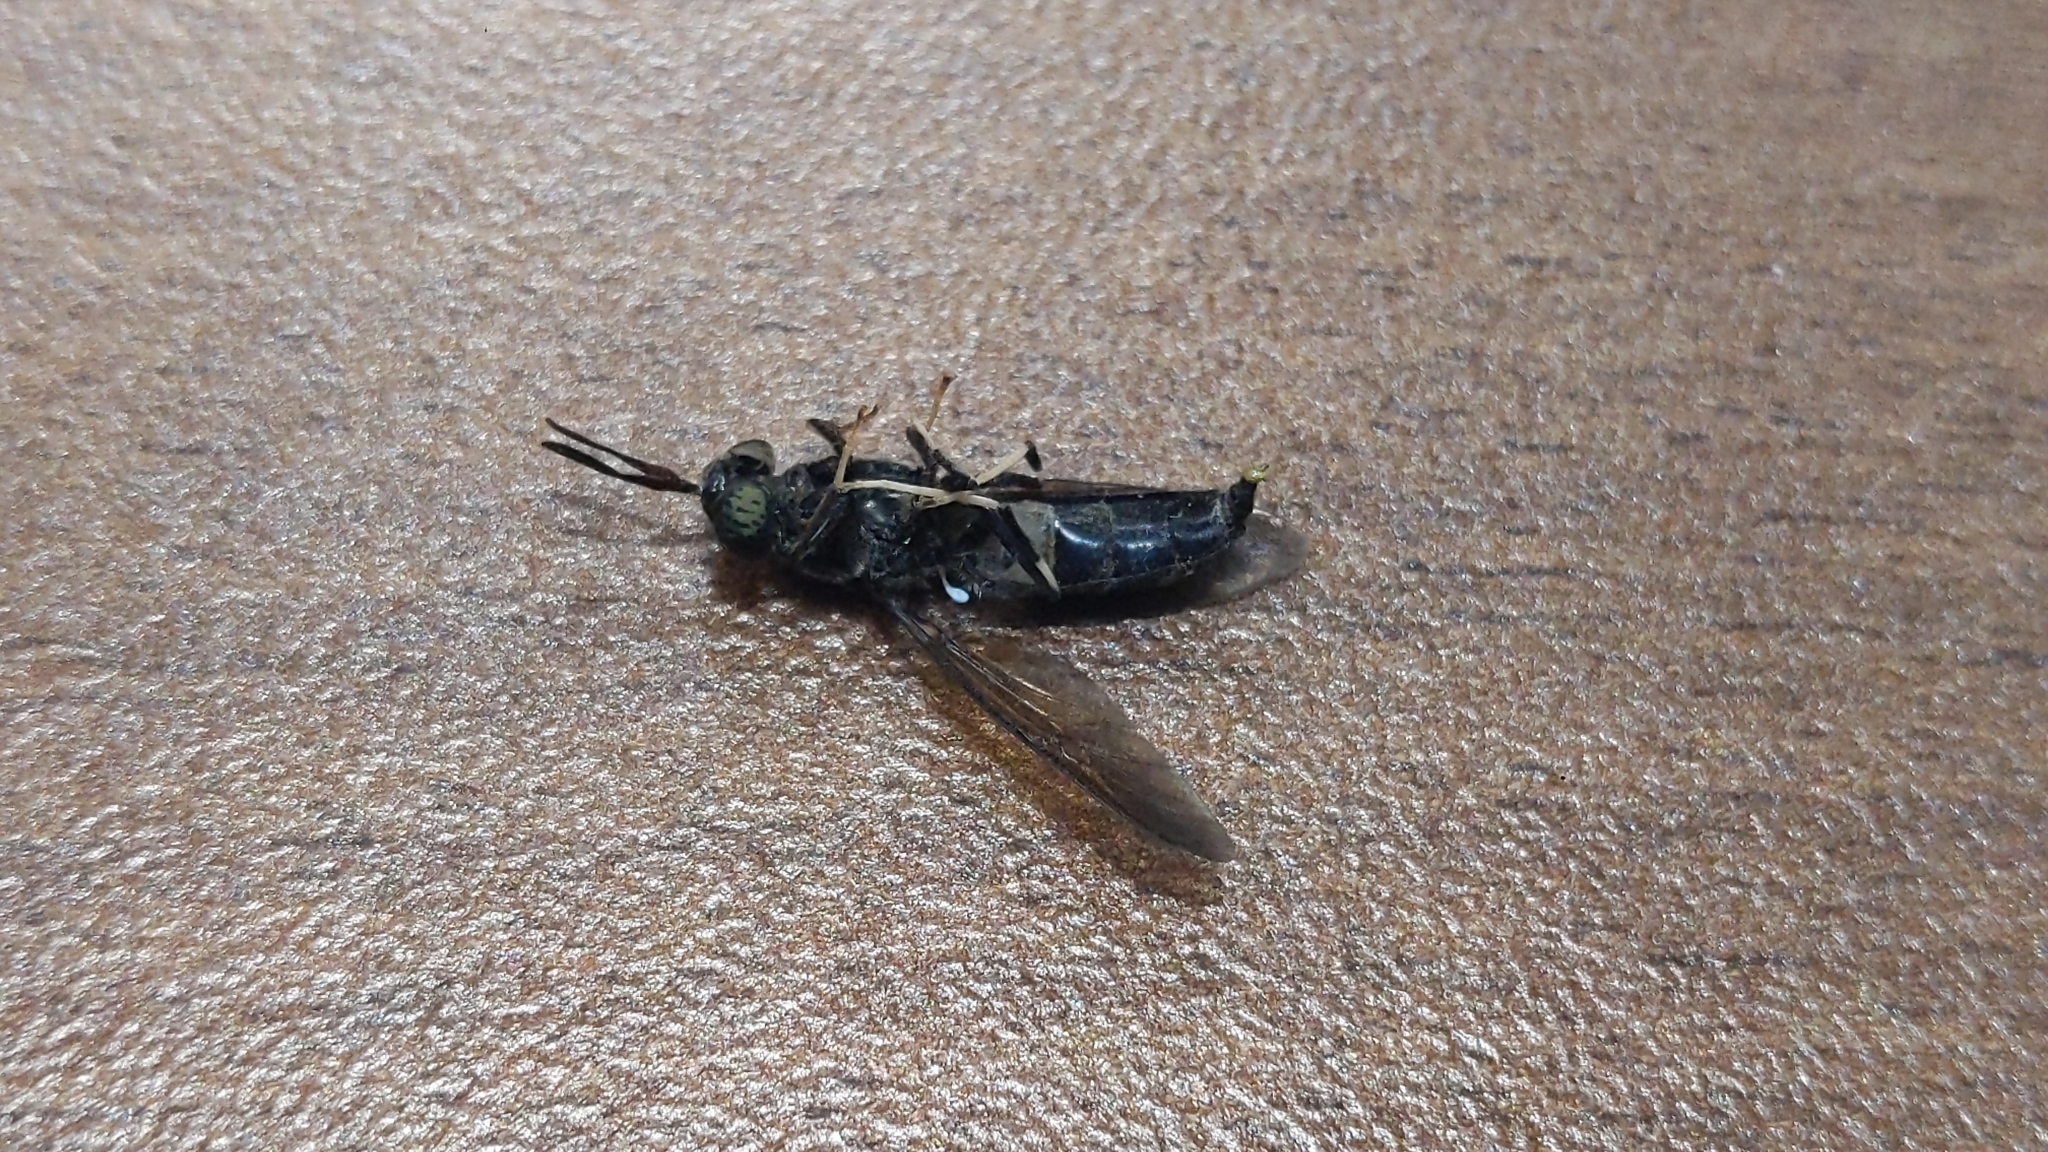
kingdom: Animalia
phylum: Arthropoda
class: Insecta
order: Diptera
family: Stratiomyidae
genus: Hermetia
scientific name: Hermetia illucens
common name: Black soldier fly
